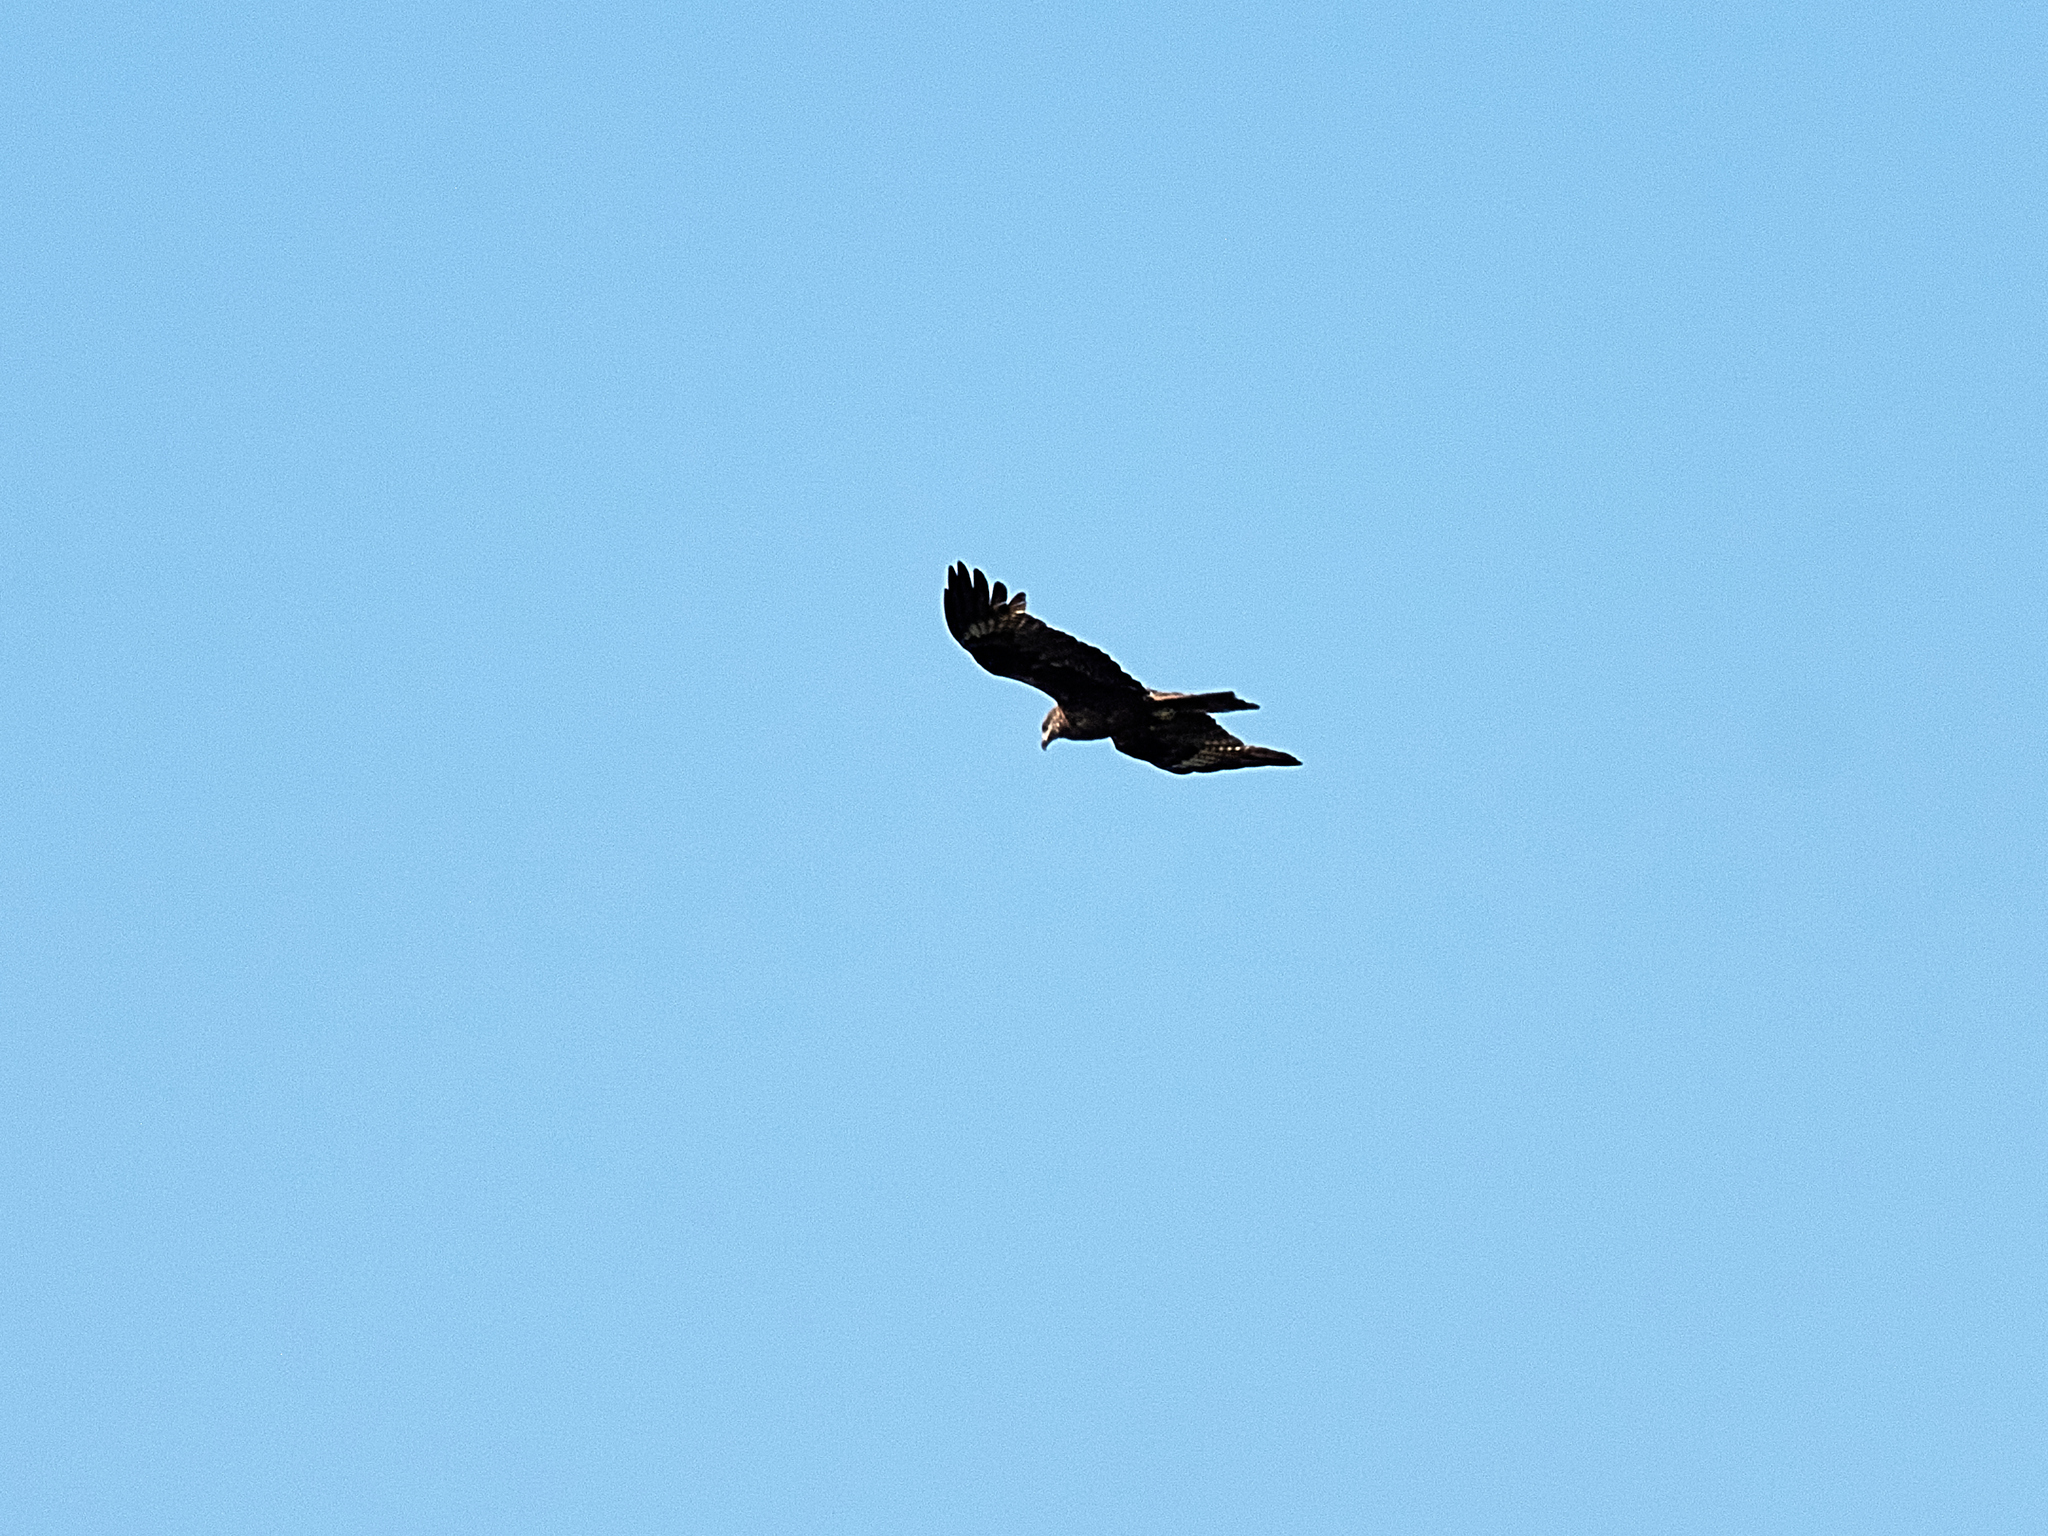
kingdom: Animalia
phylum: Chordata
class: Aves
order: Accipitriformes
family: Accipitridae
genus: Milvus
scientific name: Milvus migrans
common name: Black kite
